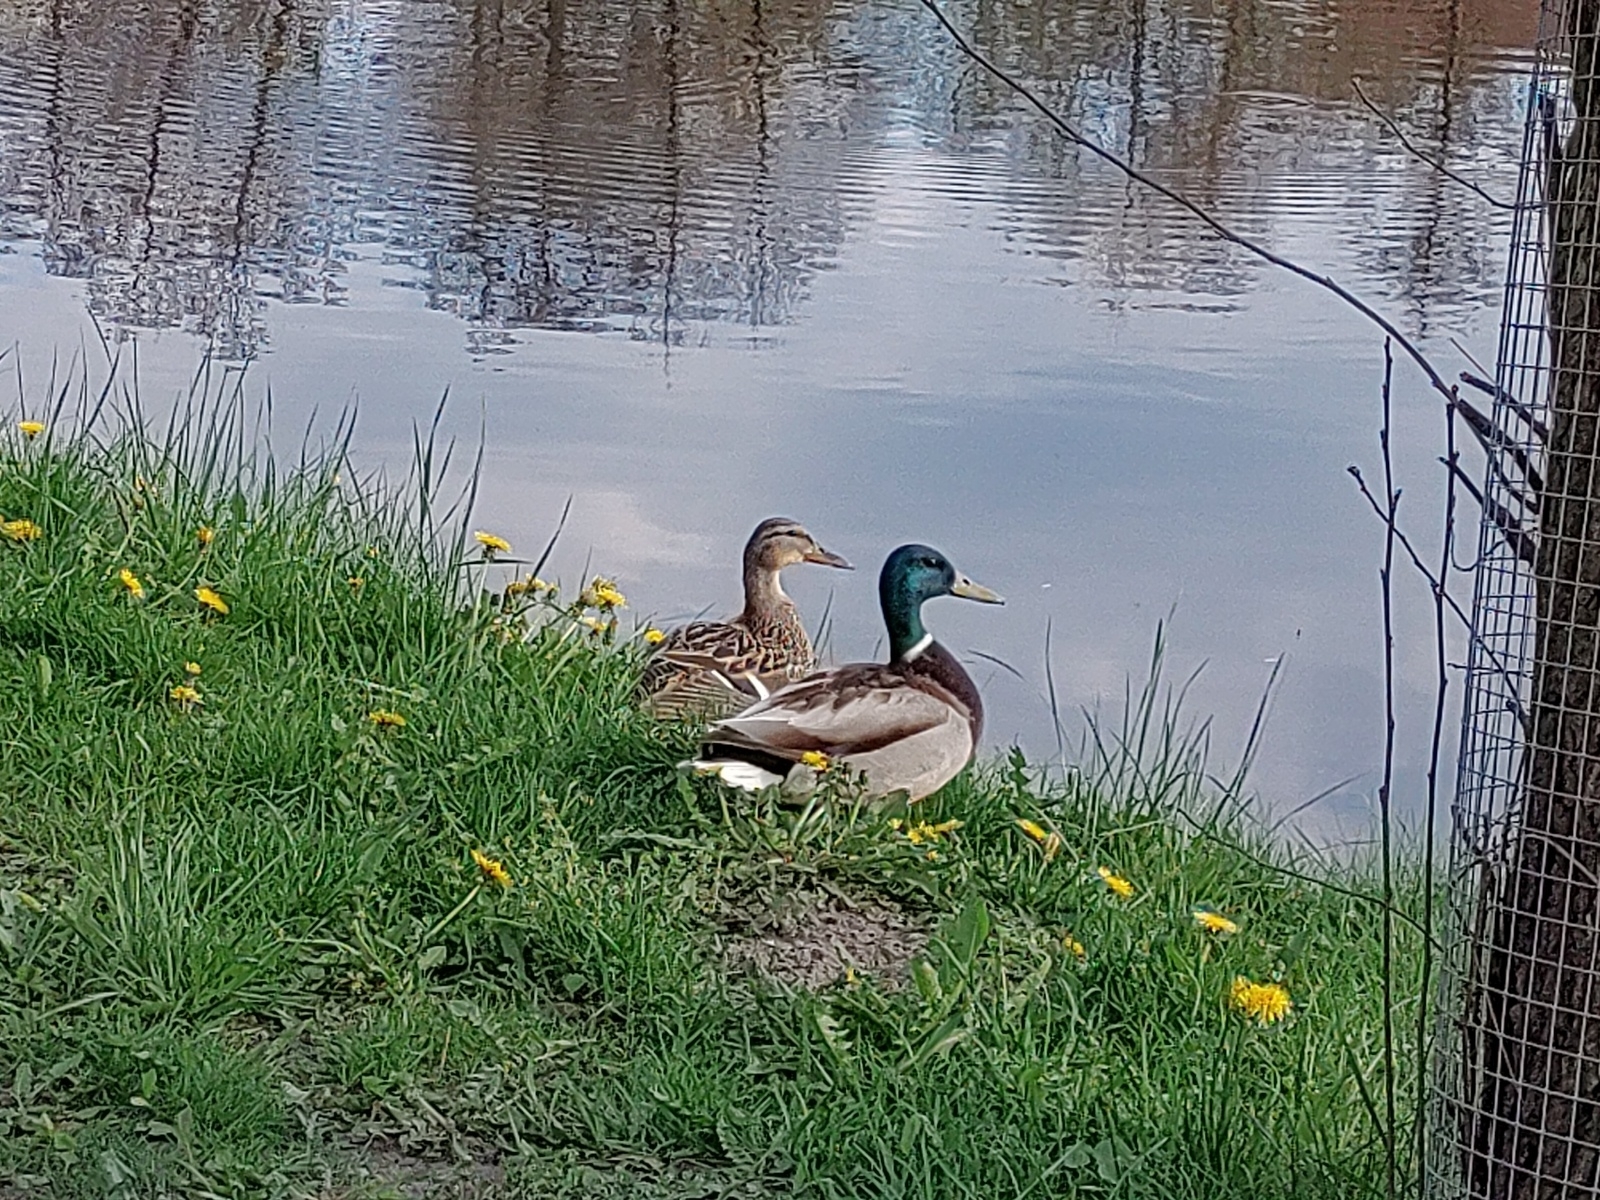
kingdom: Animalia
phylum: Chordata
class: Aves
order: Anseriformes
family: Anatidae
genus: Anas
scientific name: Anas platyrhynchos
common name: Mallard
